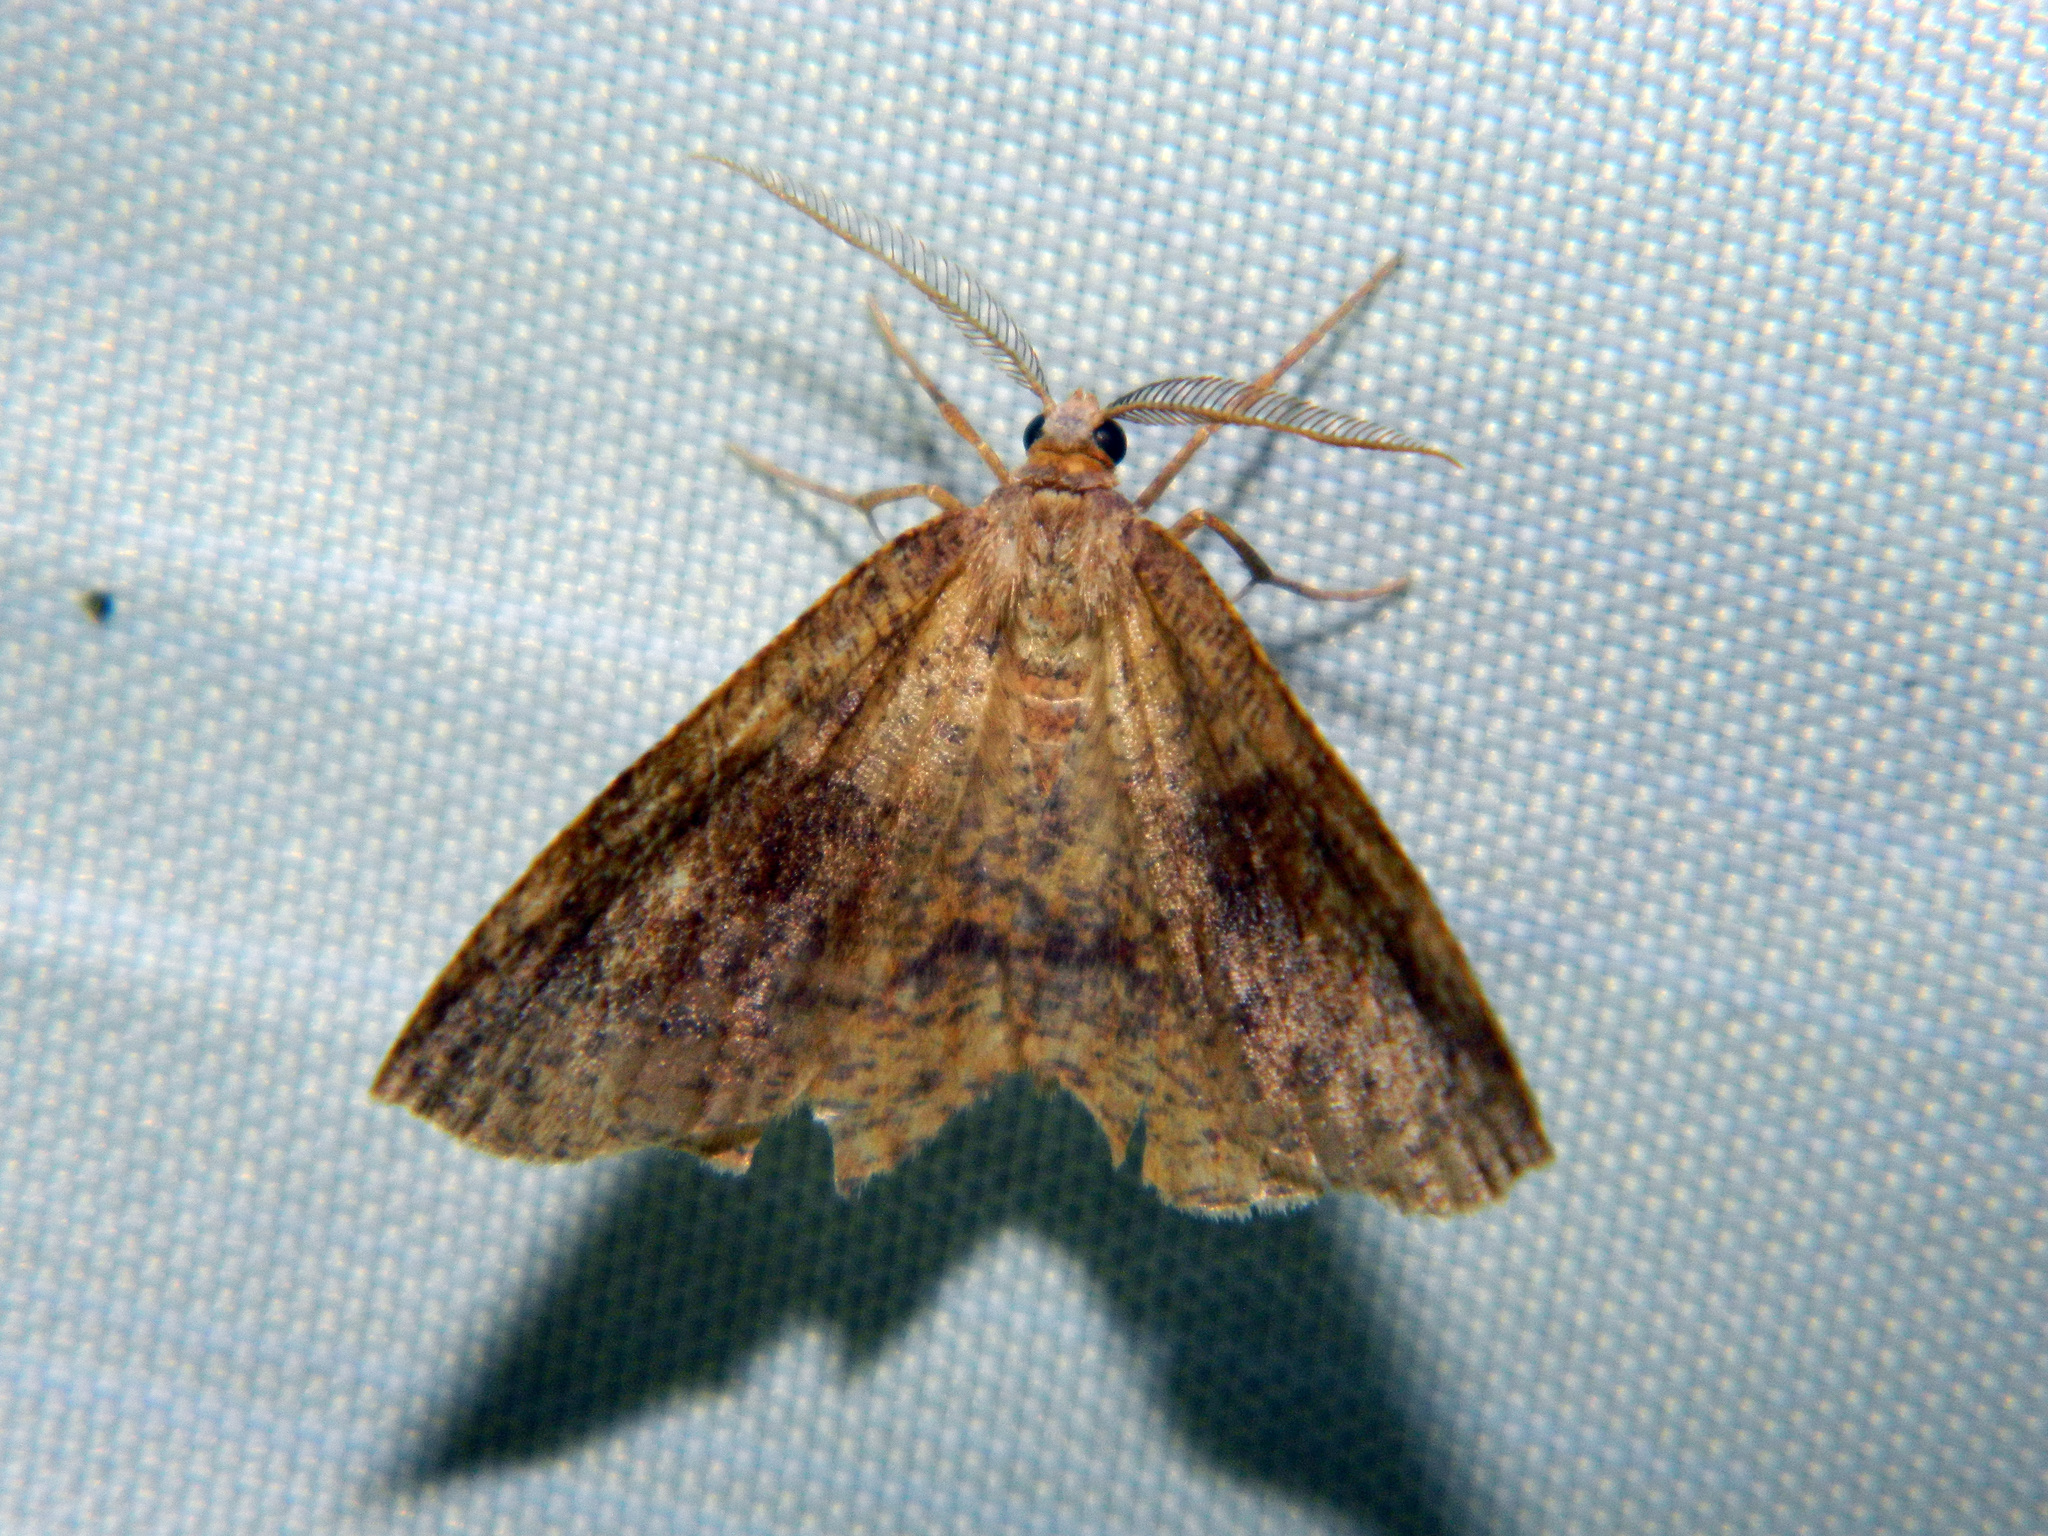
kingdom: Animalia
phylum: Arthropoda
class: Insecta
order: Lepidoptera
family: Geometridae
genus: Plagodis
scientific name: Plagodis pulveraria
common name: Barred umber
